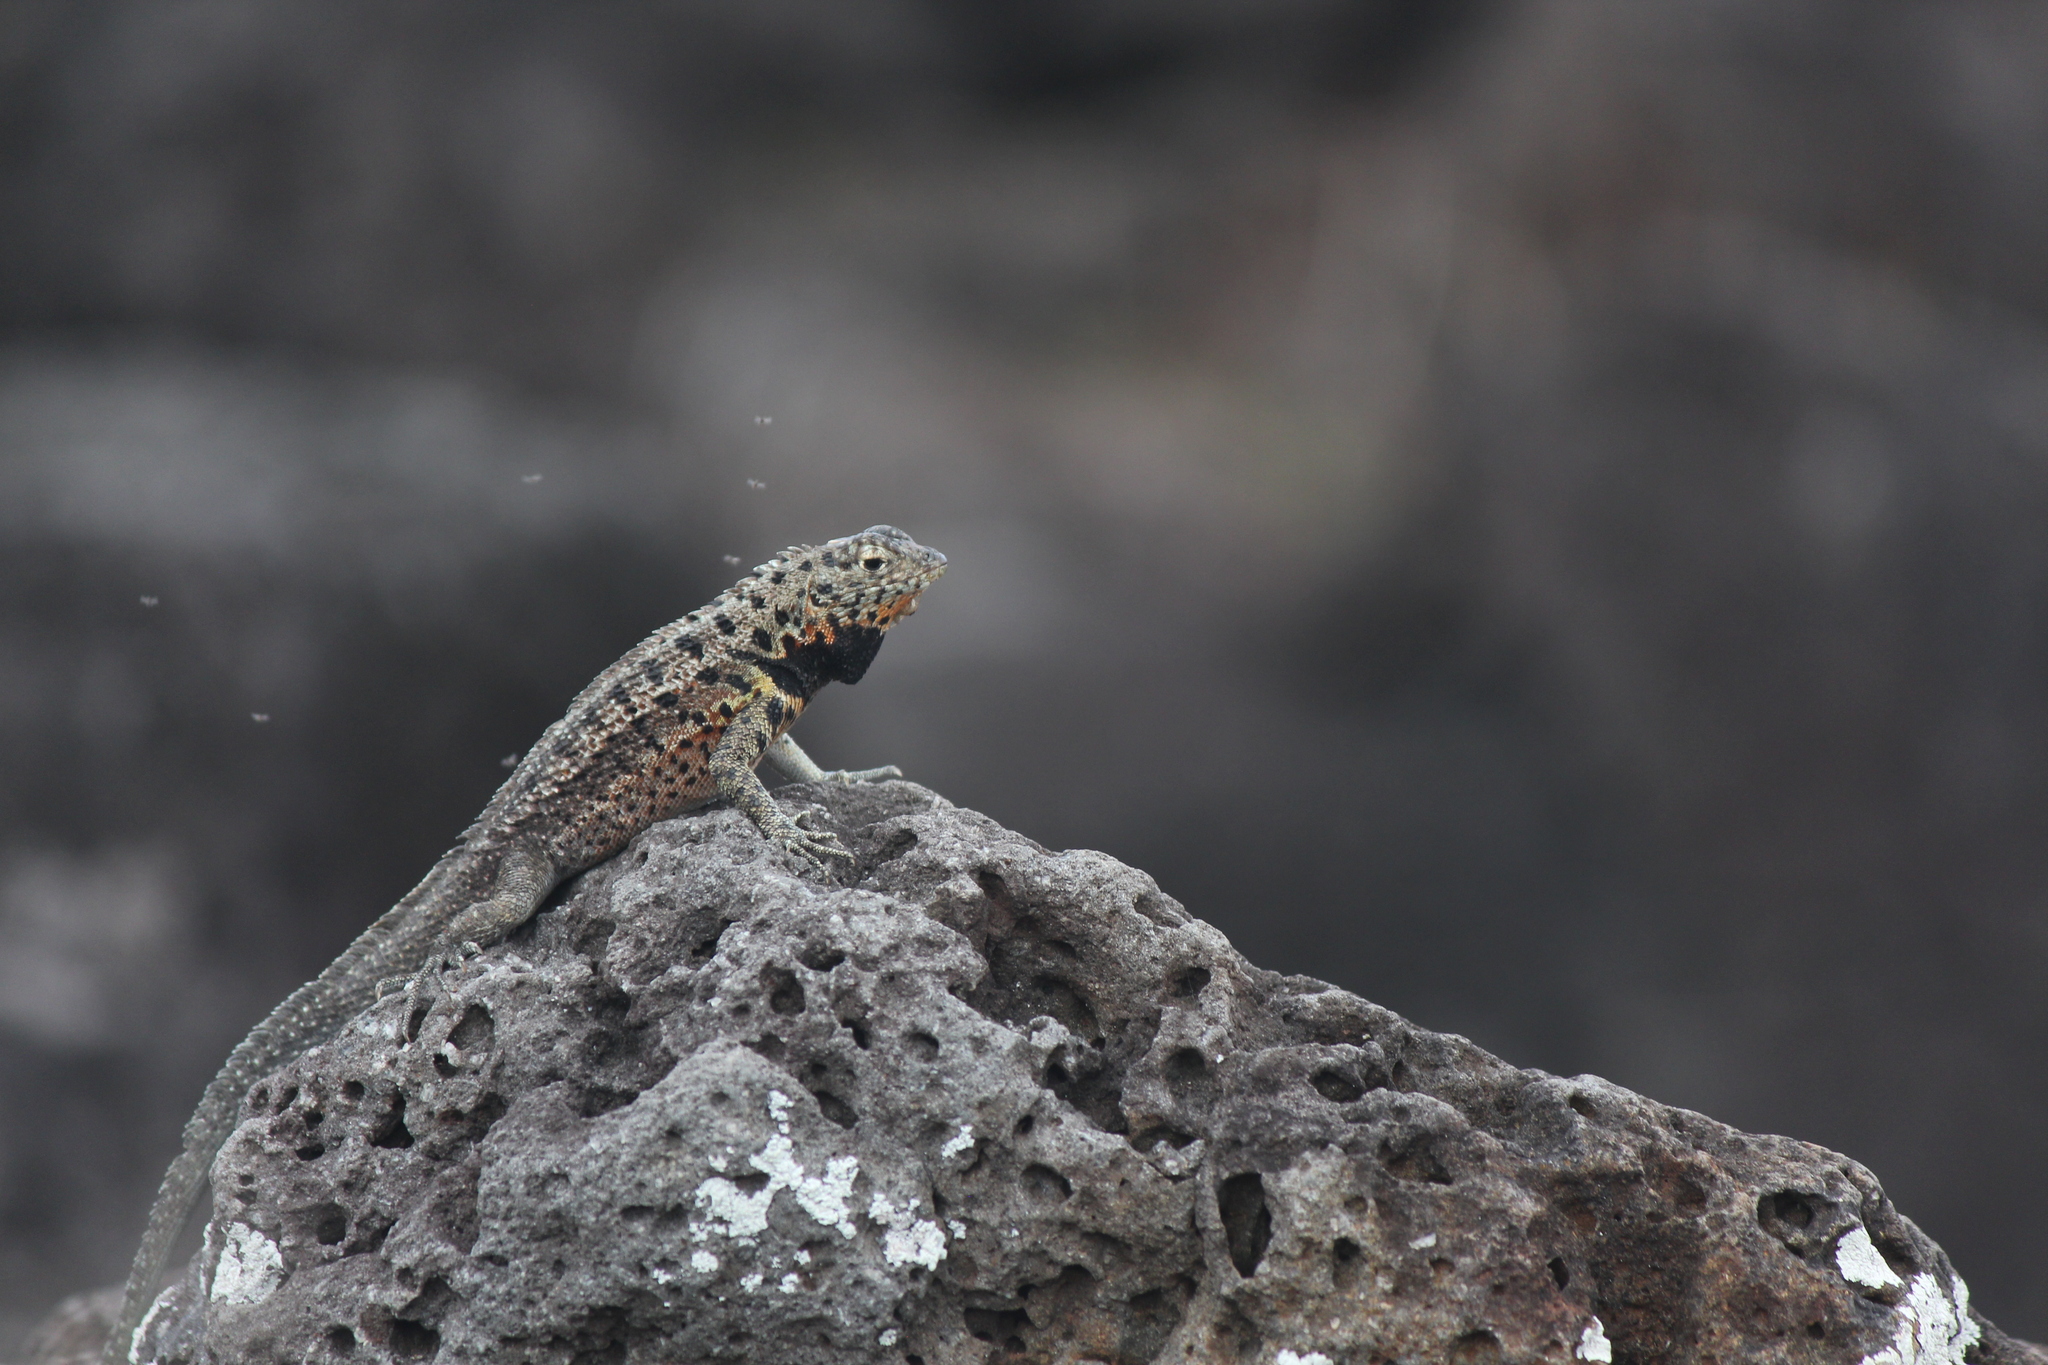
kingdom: Animalia
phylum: Chordata
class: Squamata
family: Tropiduridae
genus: Microlophus
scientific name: Microlophus indefatigabilis
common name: Galapagos lava lizard
